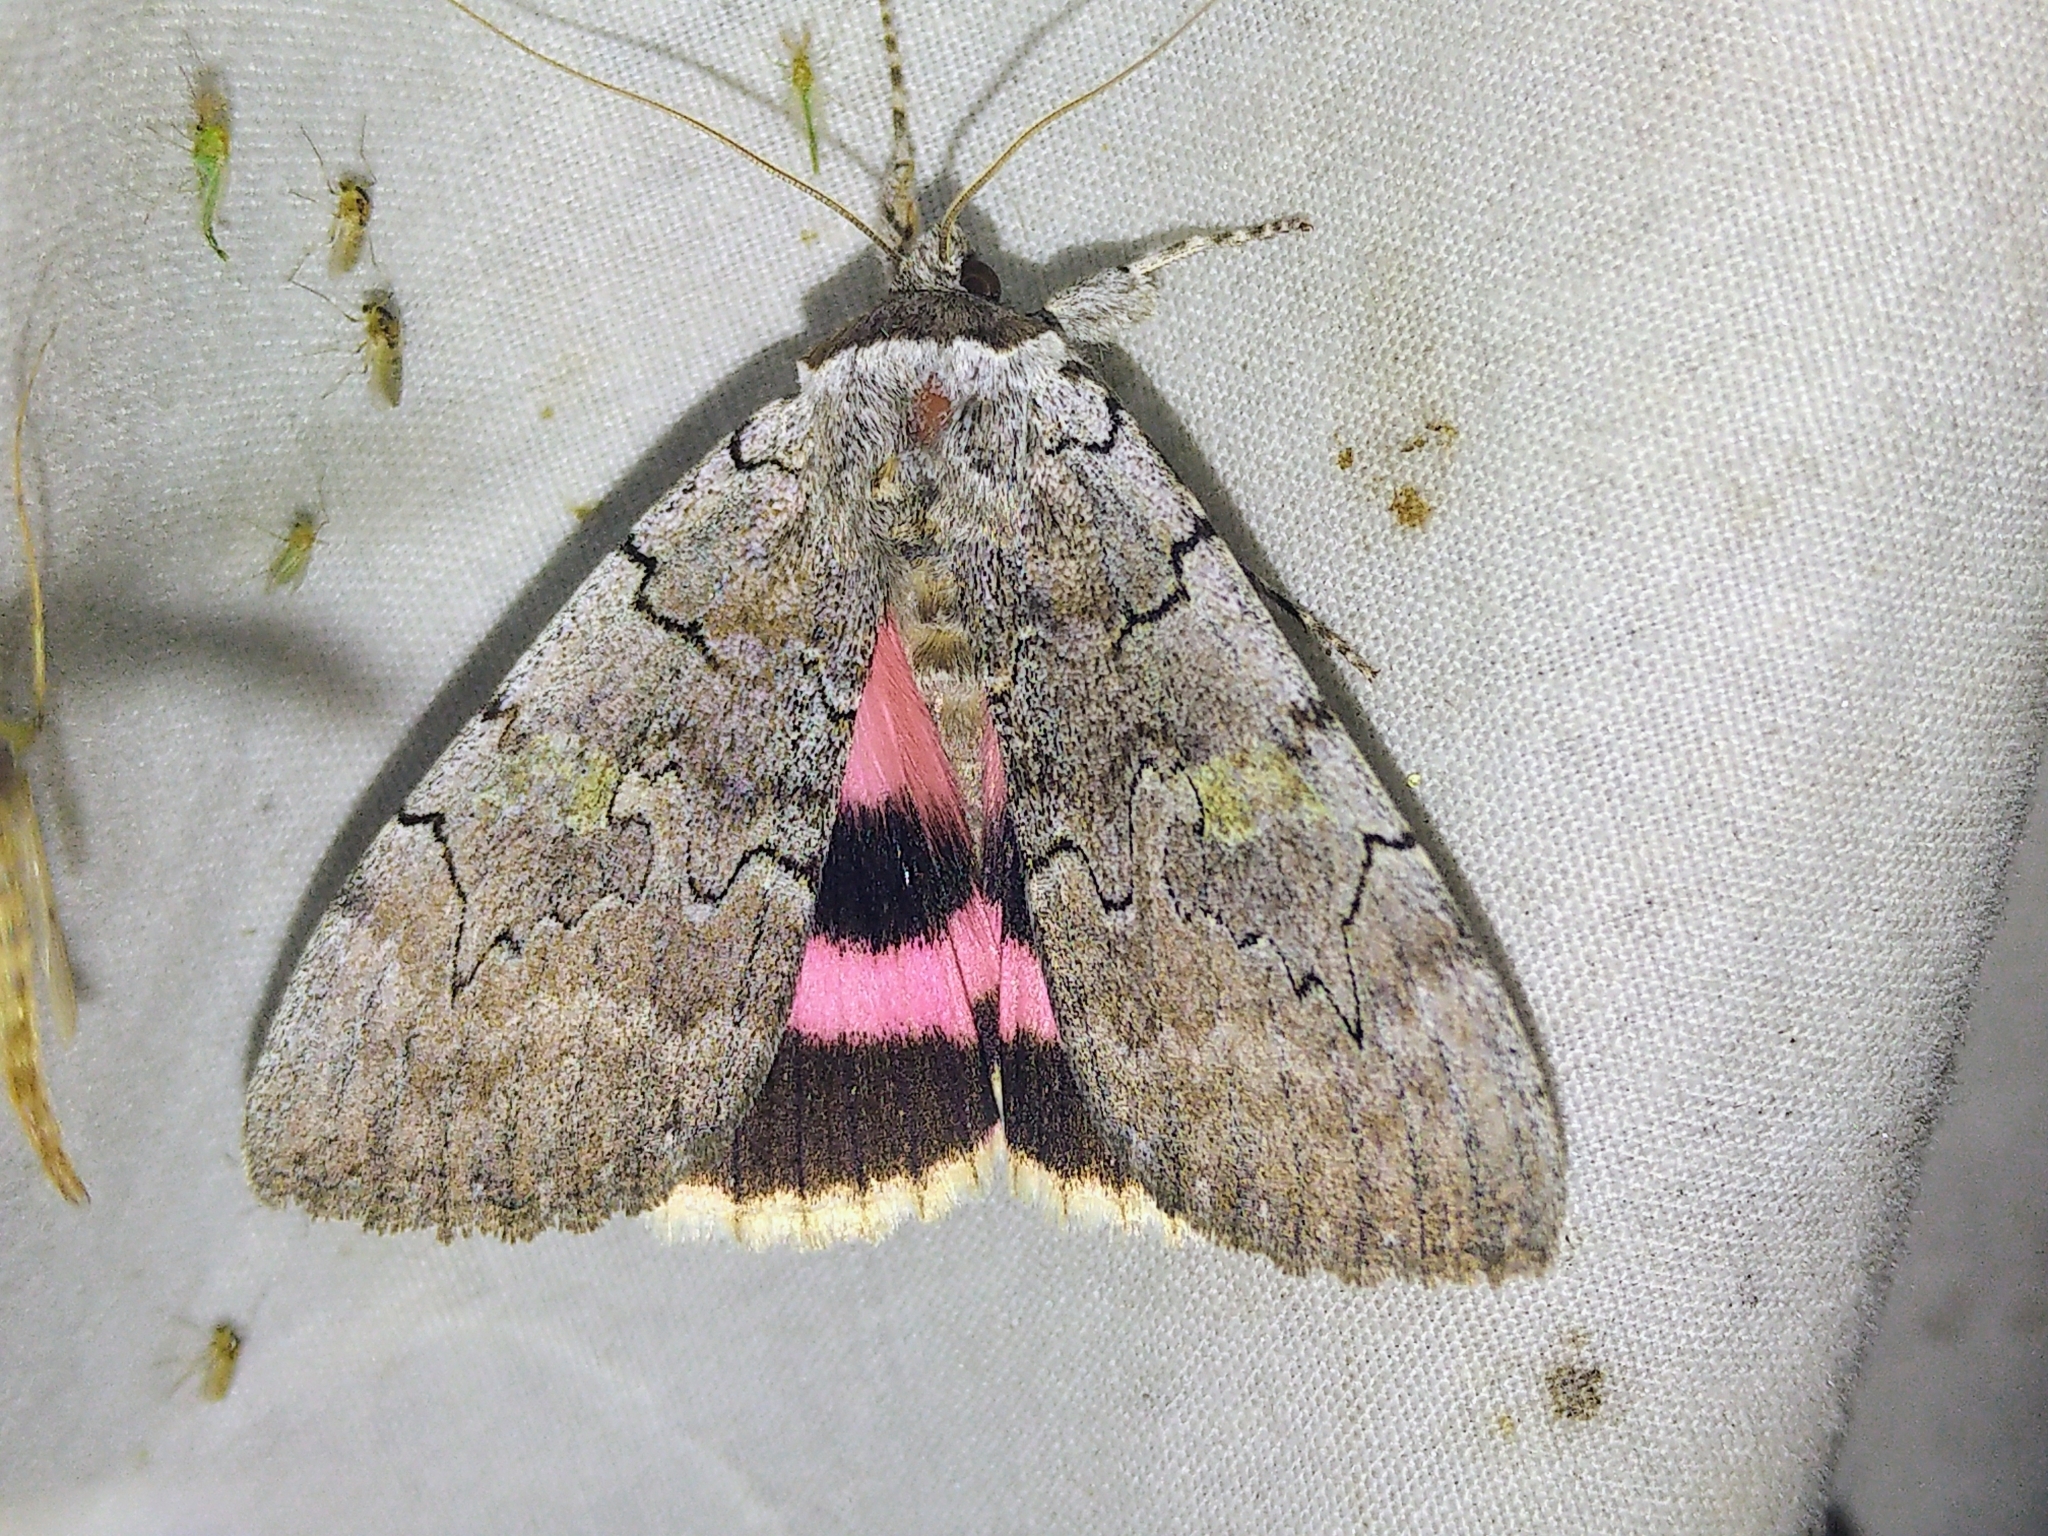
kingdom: Animalia
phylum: Arthropoda
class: Insecta
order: Lepidoptera
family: Erebidae
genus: Catocala
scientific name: Catocala concumbens
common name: Pink underwing
